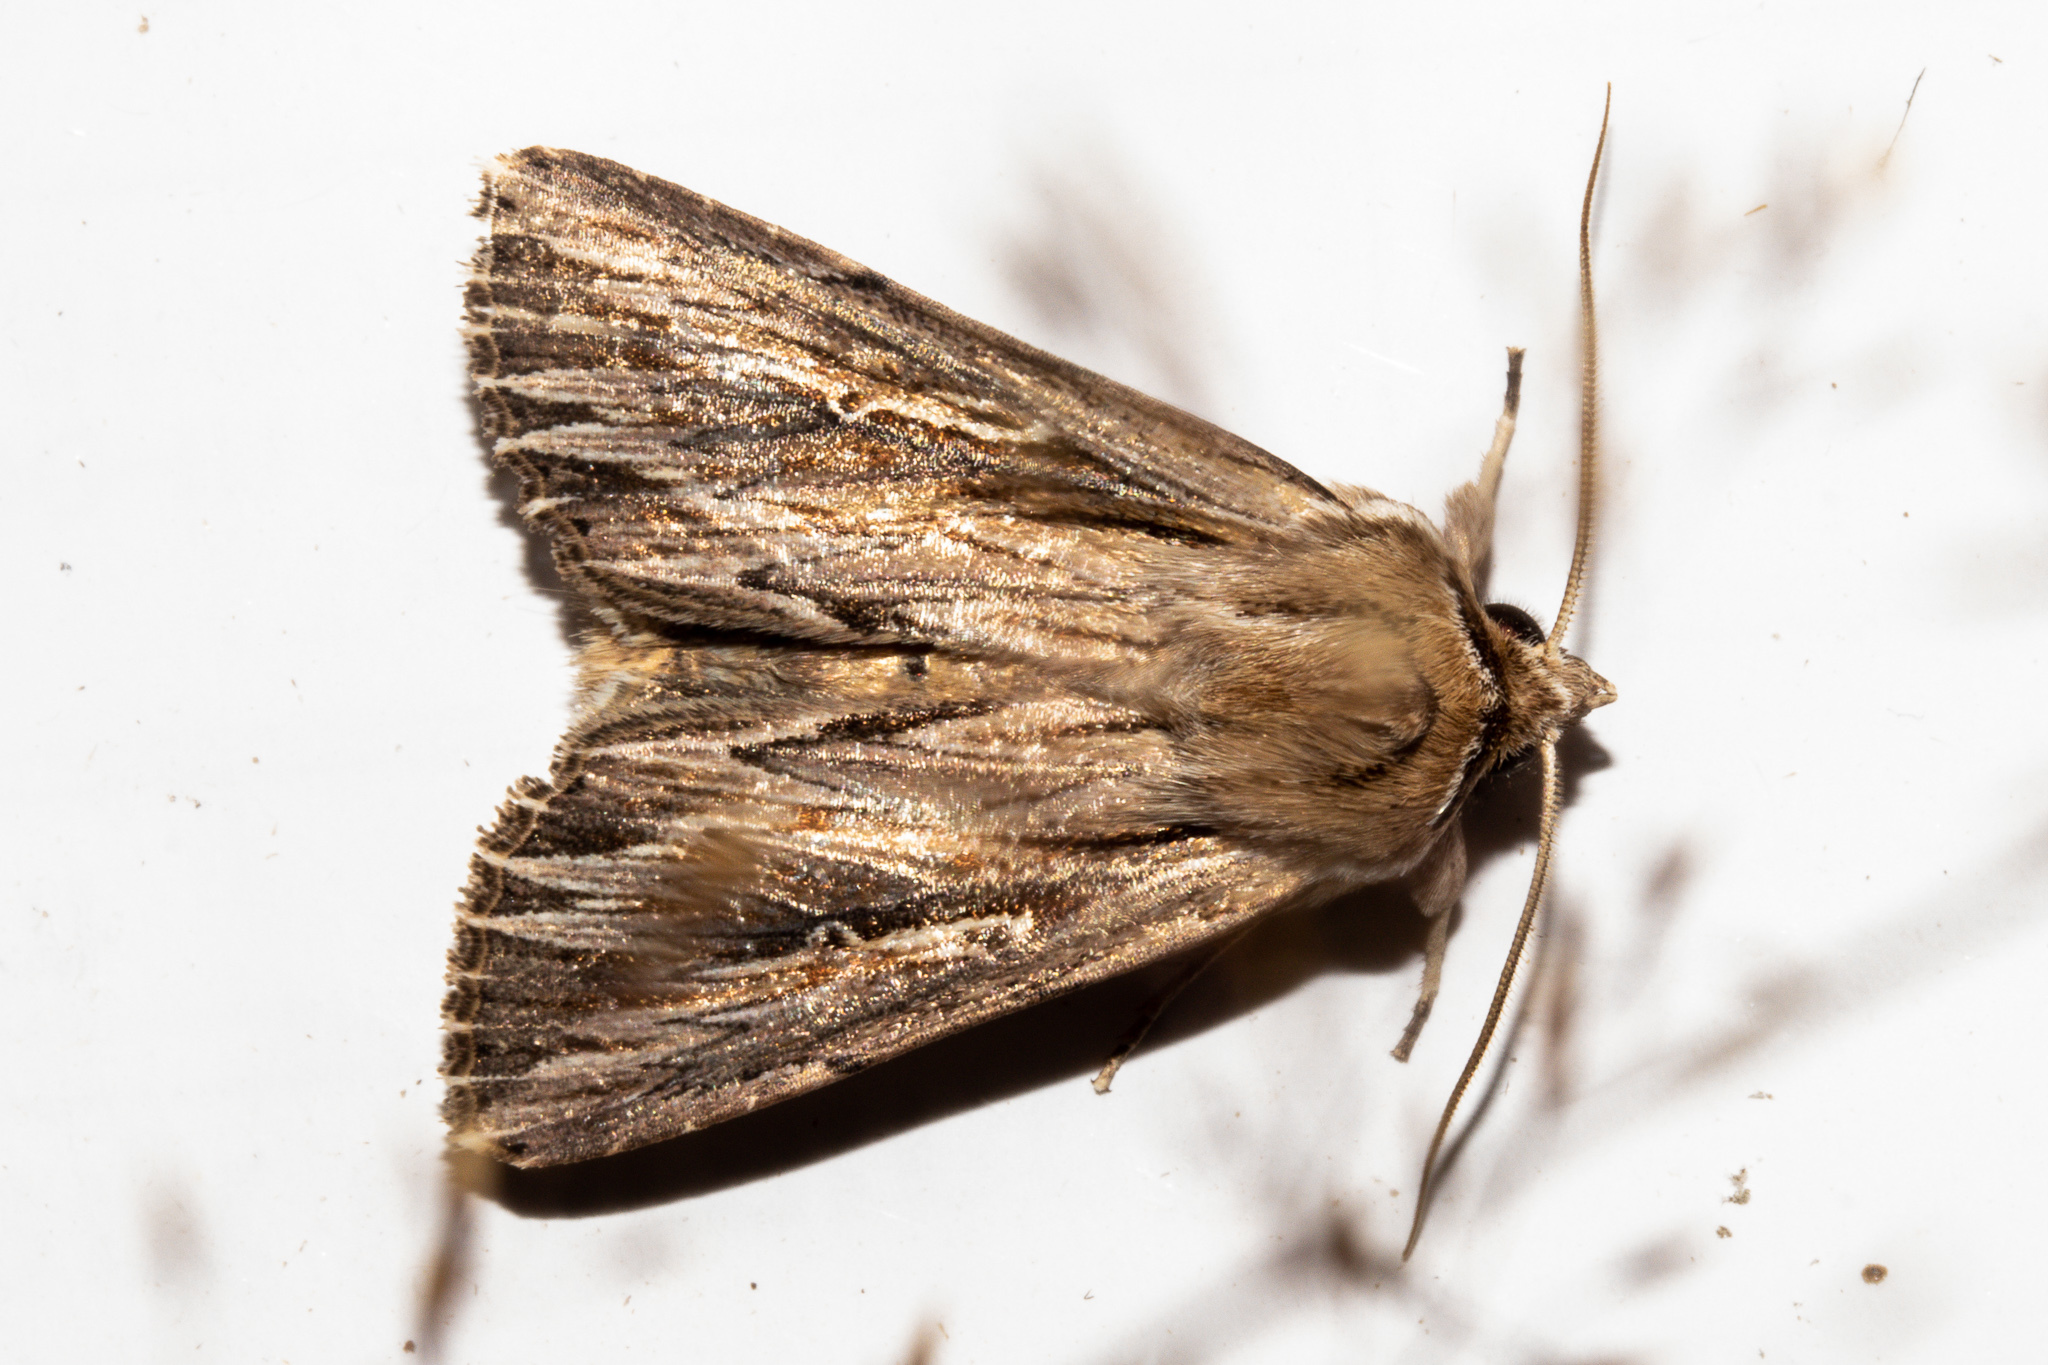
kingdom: Animalia
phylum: Arthropoda
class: Insecta
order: Lepidoptera
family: Noctuidae
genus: Persectania
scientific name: Persectania aversa
